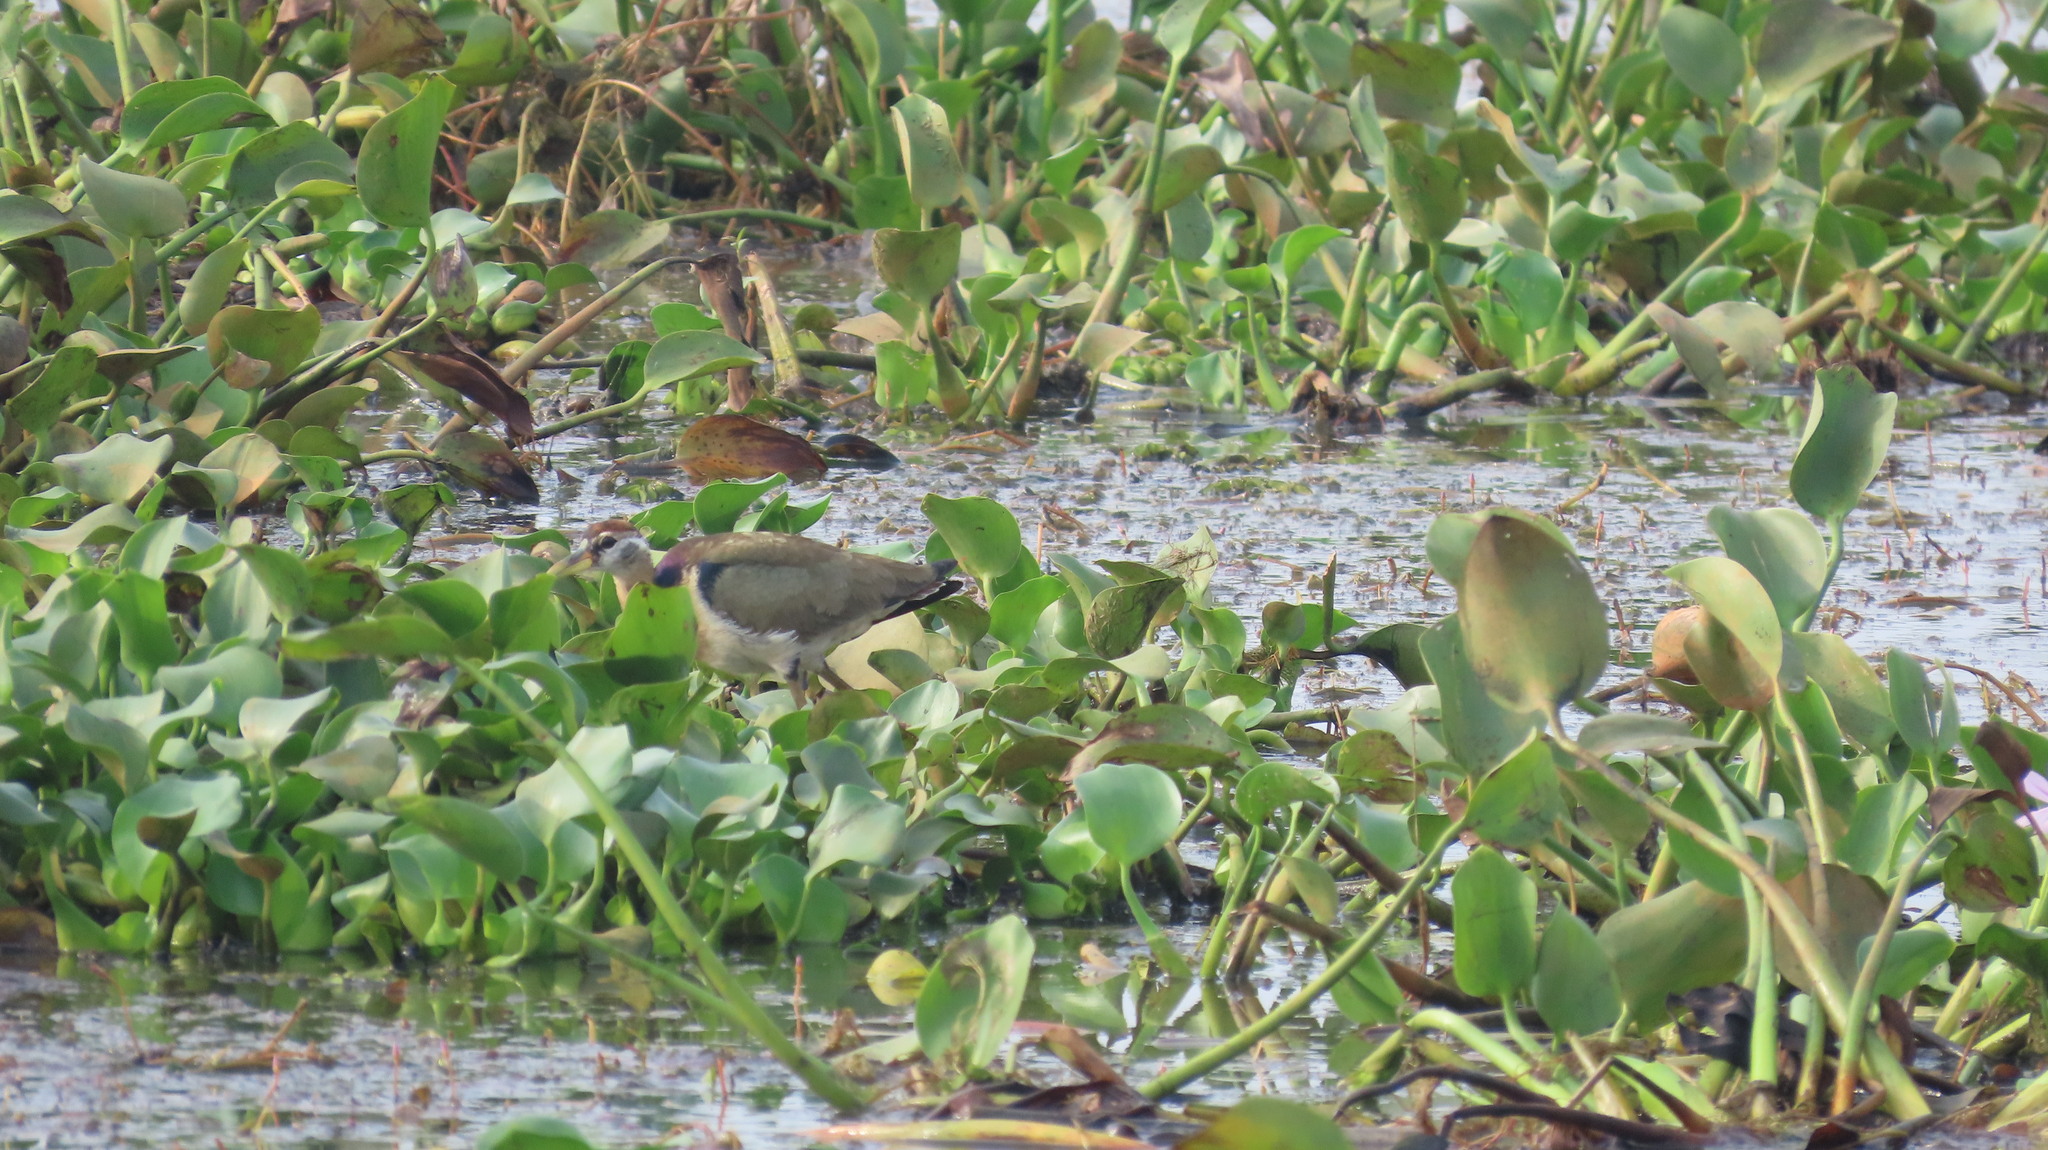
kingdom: Animalia
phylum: Chordata
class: Aves
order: Charadriiformes
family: Jacanidae
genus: Metopidius
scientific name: Metopidius indicus
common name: Bronze-winged jacana
